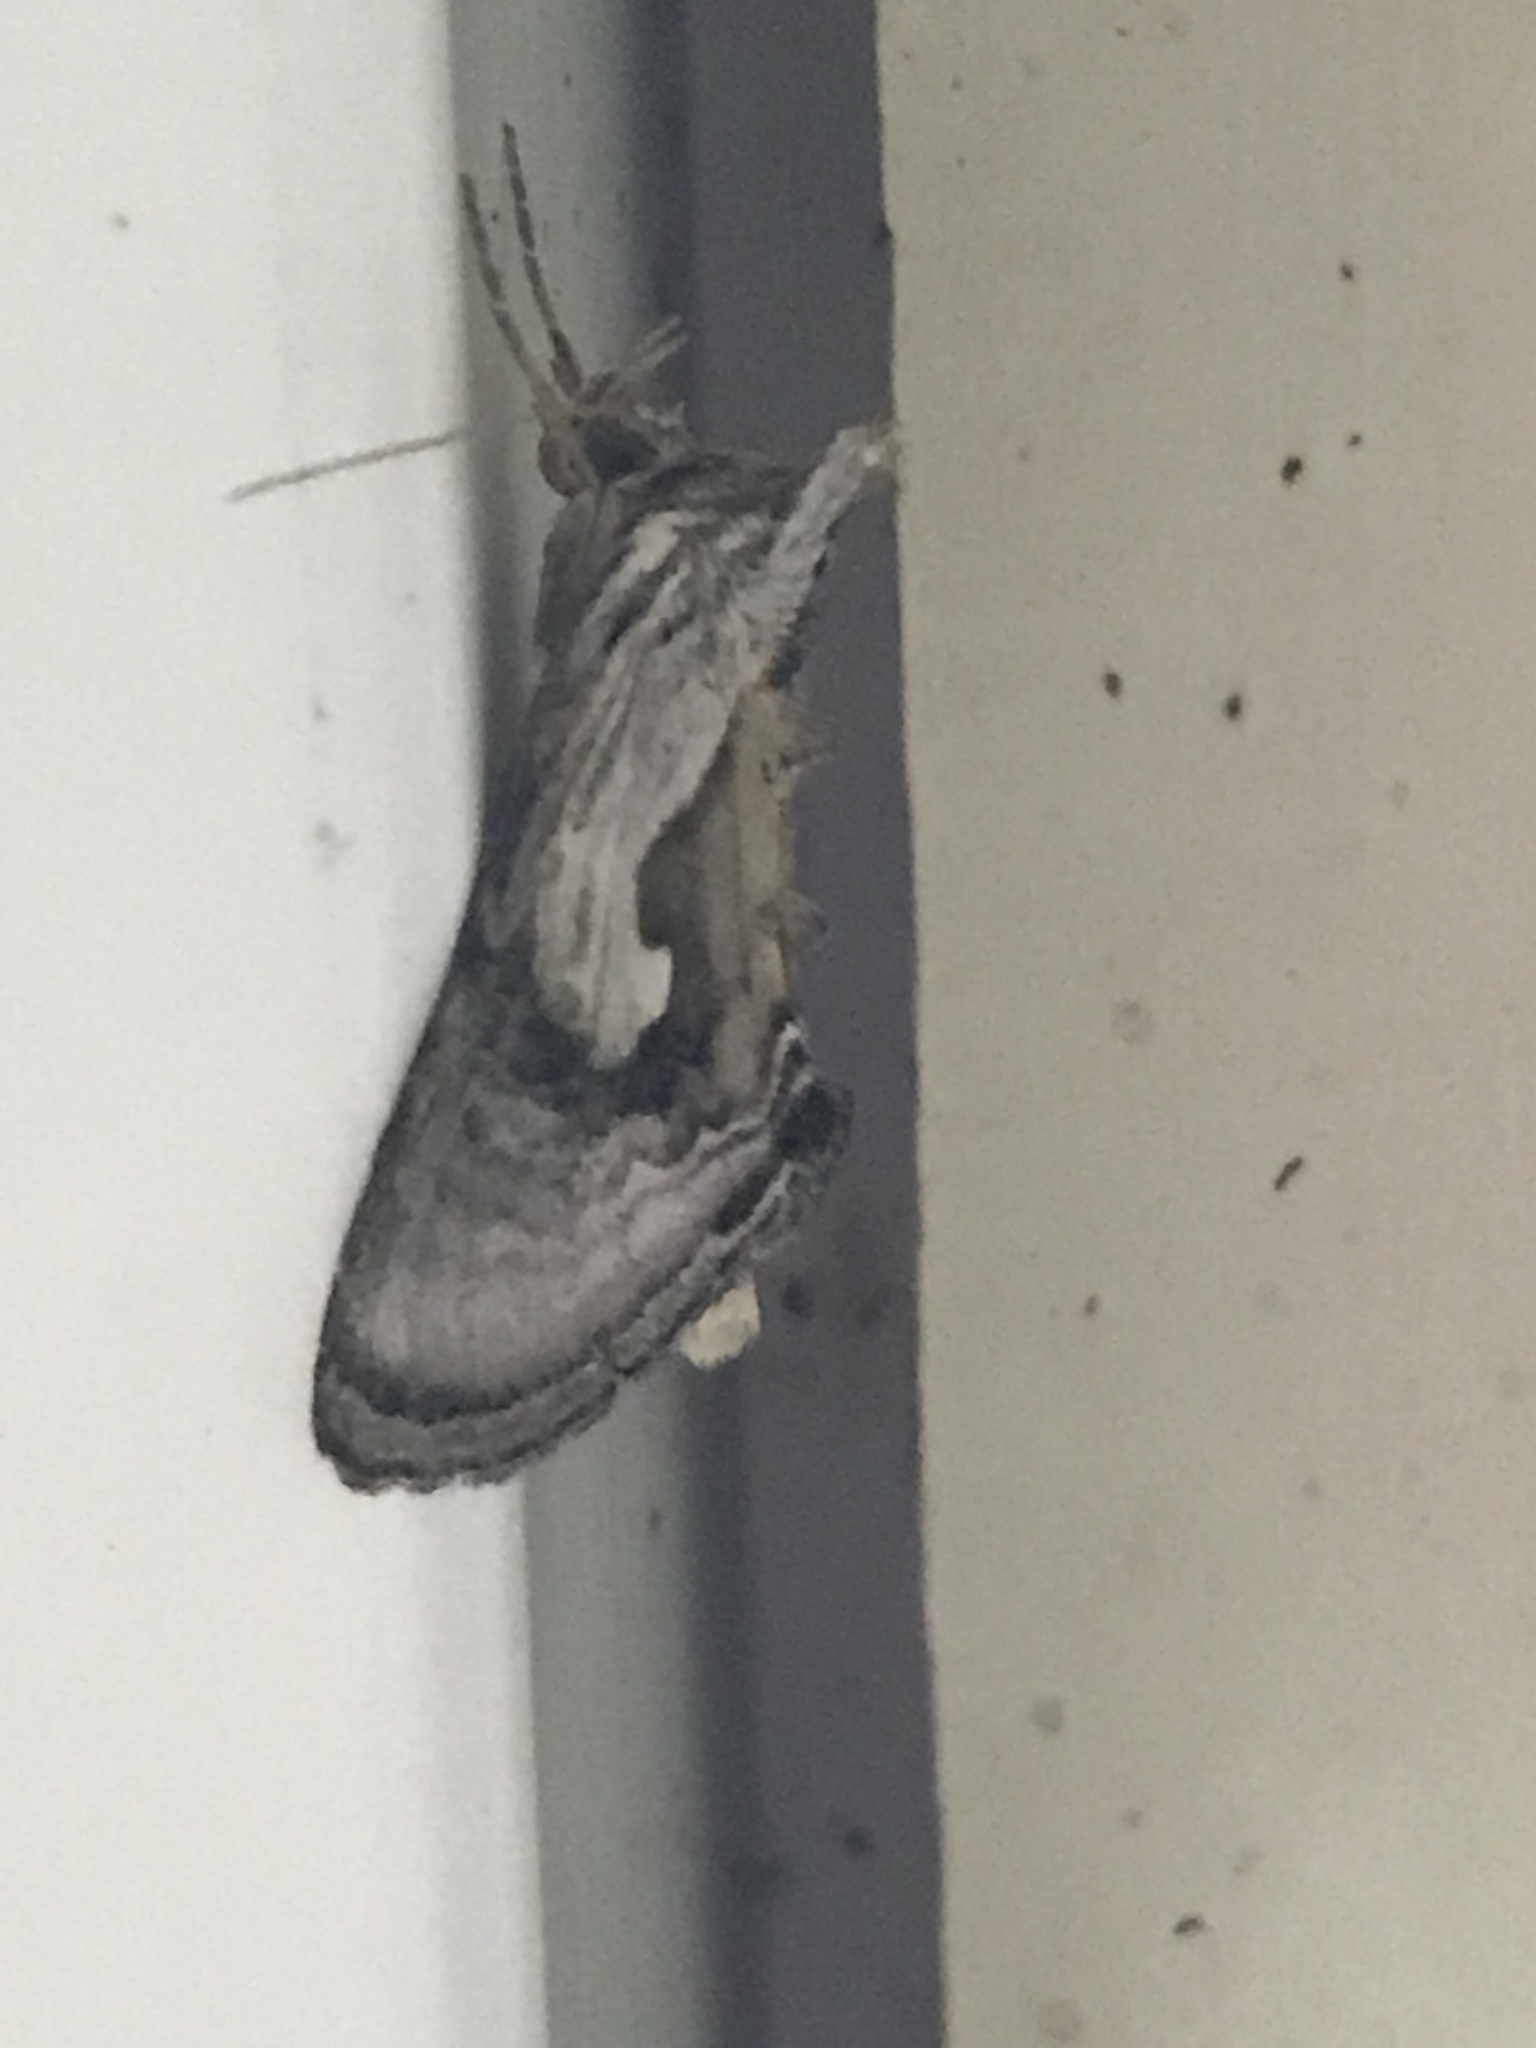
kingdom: Animalia
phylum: Arthropoda
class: Insecta
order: Lepidoptera
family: Noctuidae
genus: Chrysanympha
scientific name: Chrysanympha formosa
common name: Formosa looper moth
